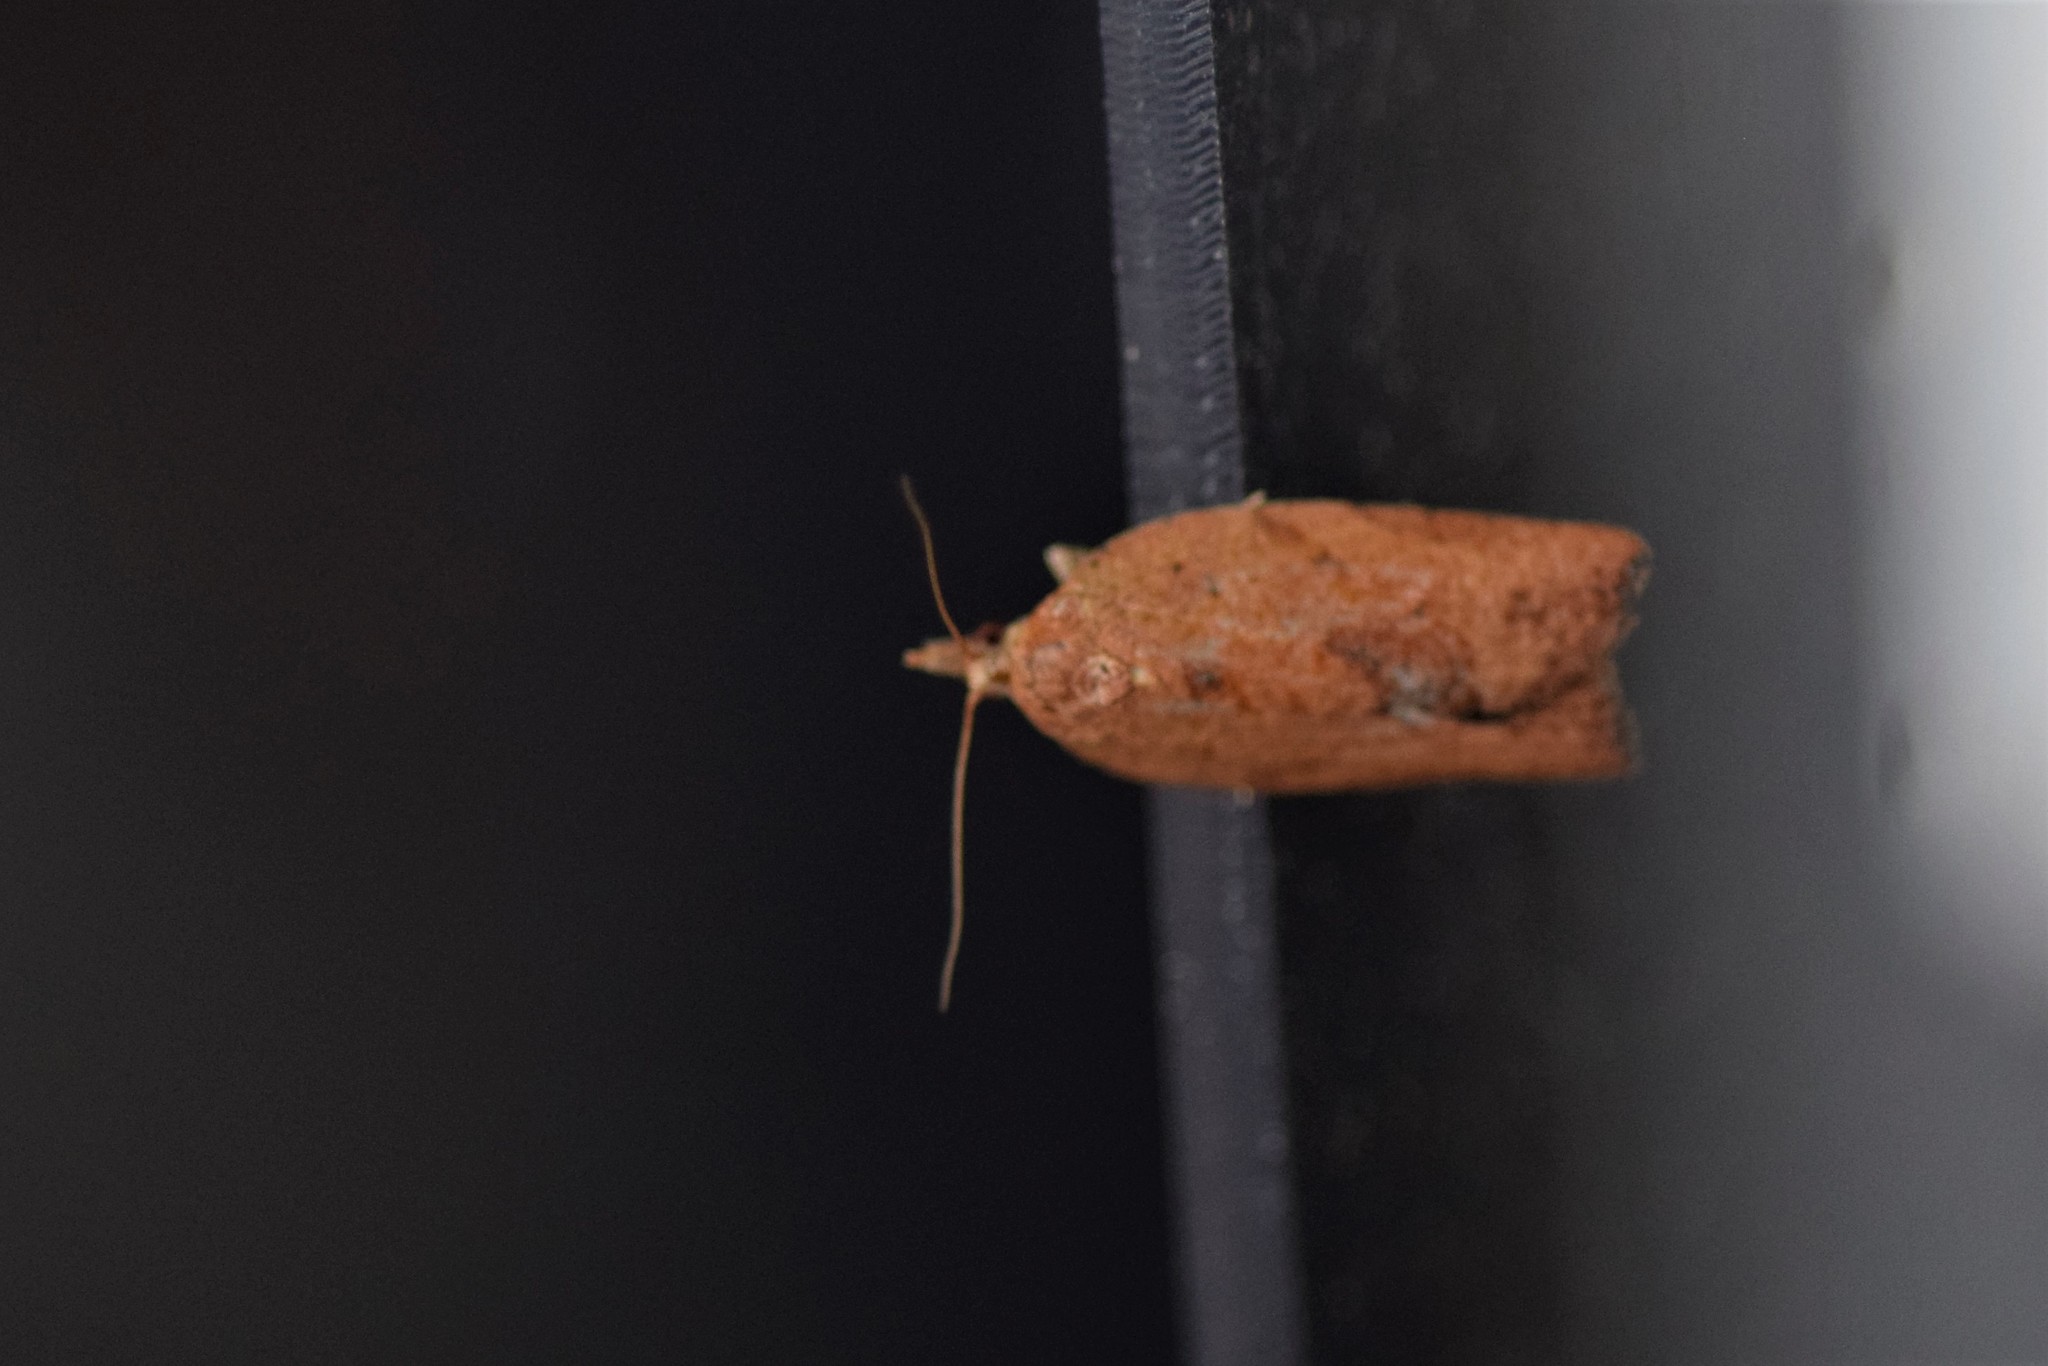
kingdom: Animalia
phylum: Arthropoda
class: Insecta
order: Lepidoptera
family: Tortricidae
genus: Epiphyas
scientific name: Epiphyas postvittana
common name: Light brown apple moth
